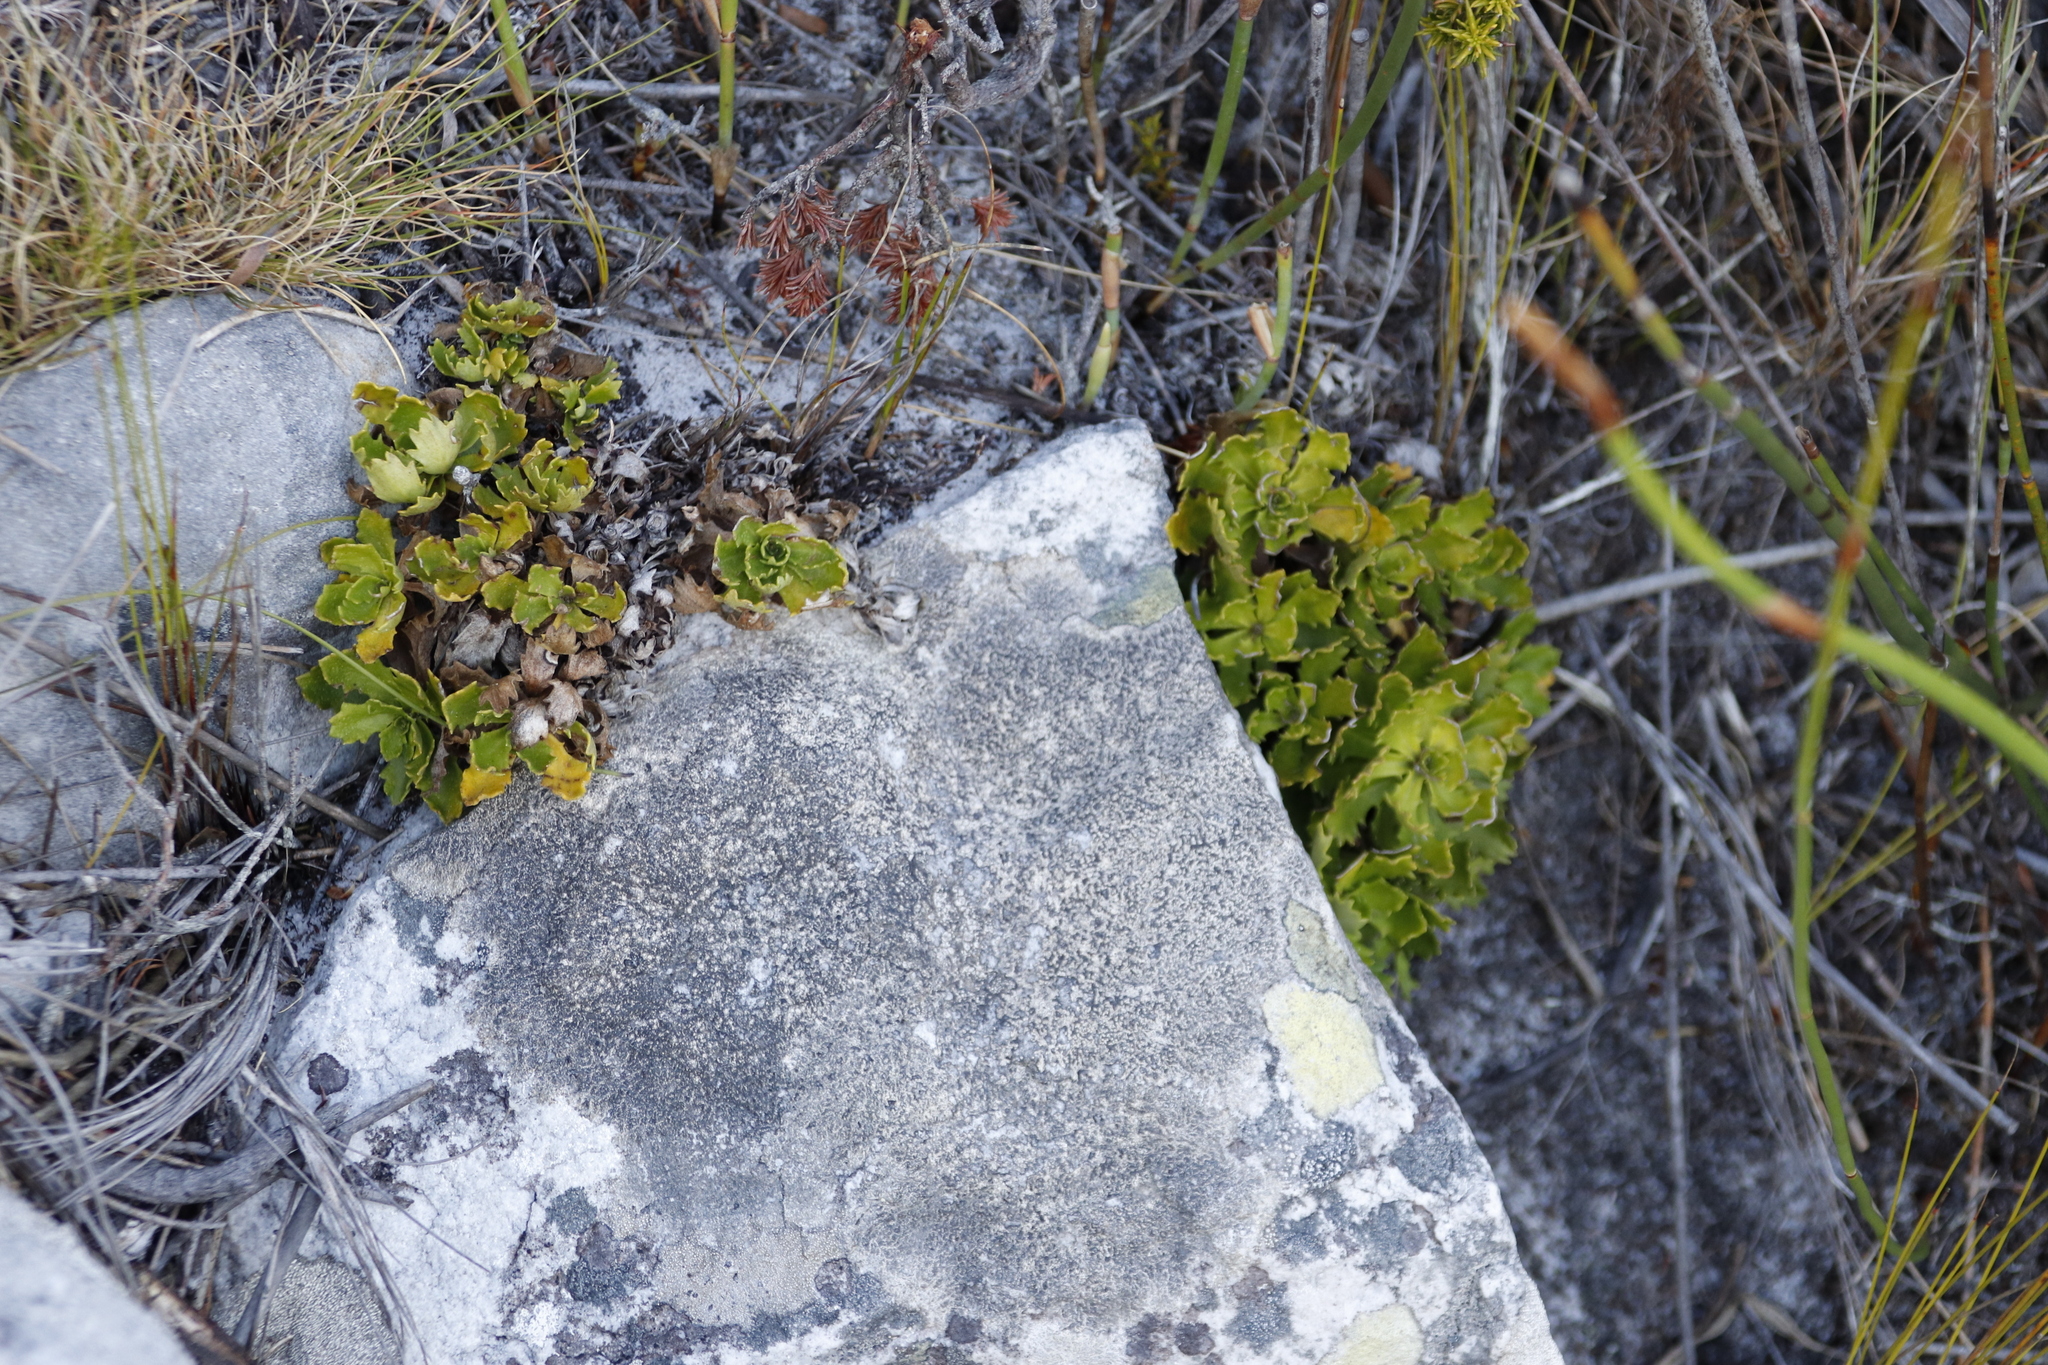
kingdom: Plantae
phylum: Tracheophyta
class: Magnoliopsida
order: Asterales
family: Asteraceae
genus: Osmitopsis
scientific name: Osmitopsis dentata
